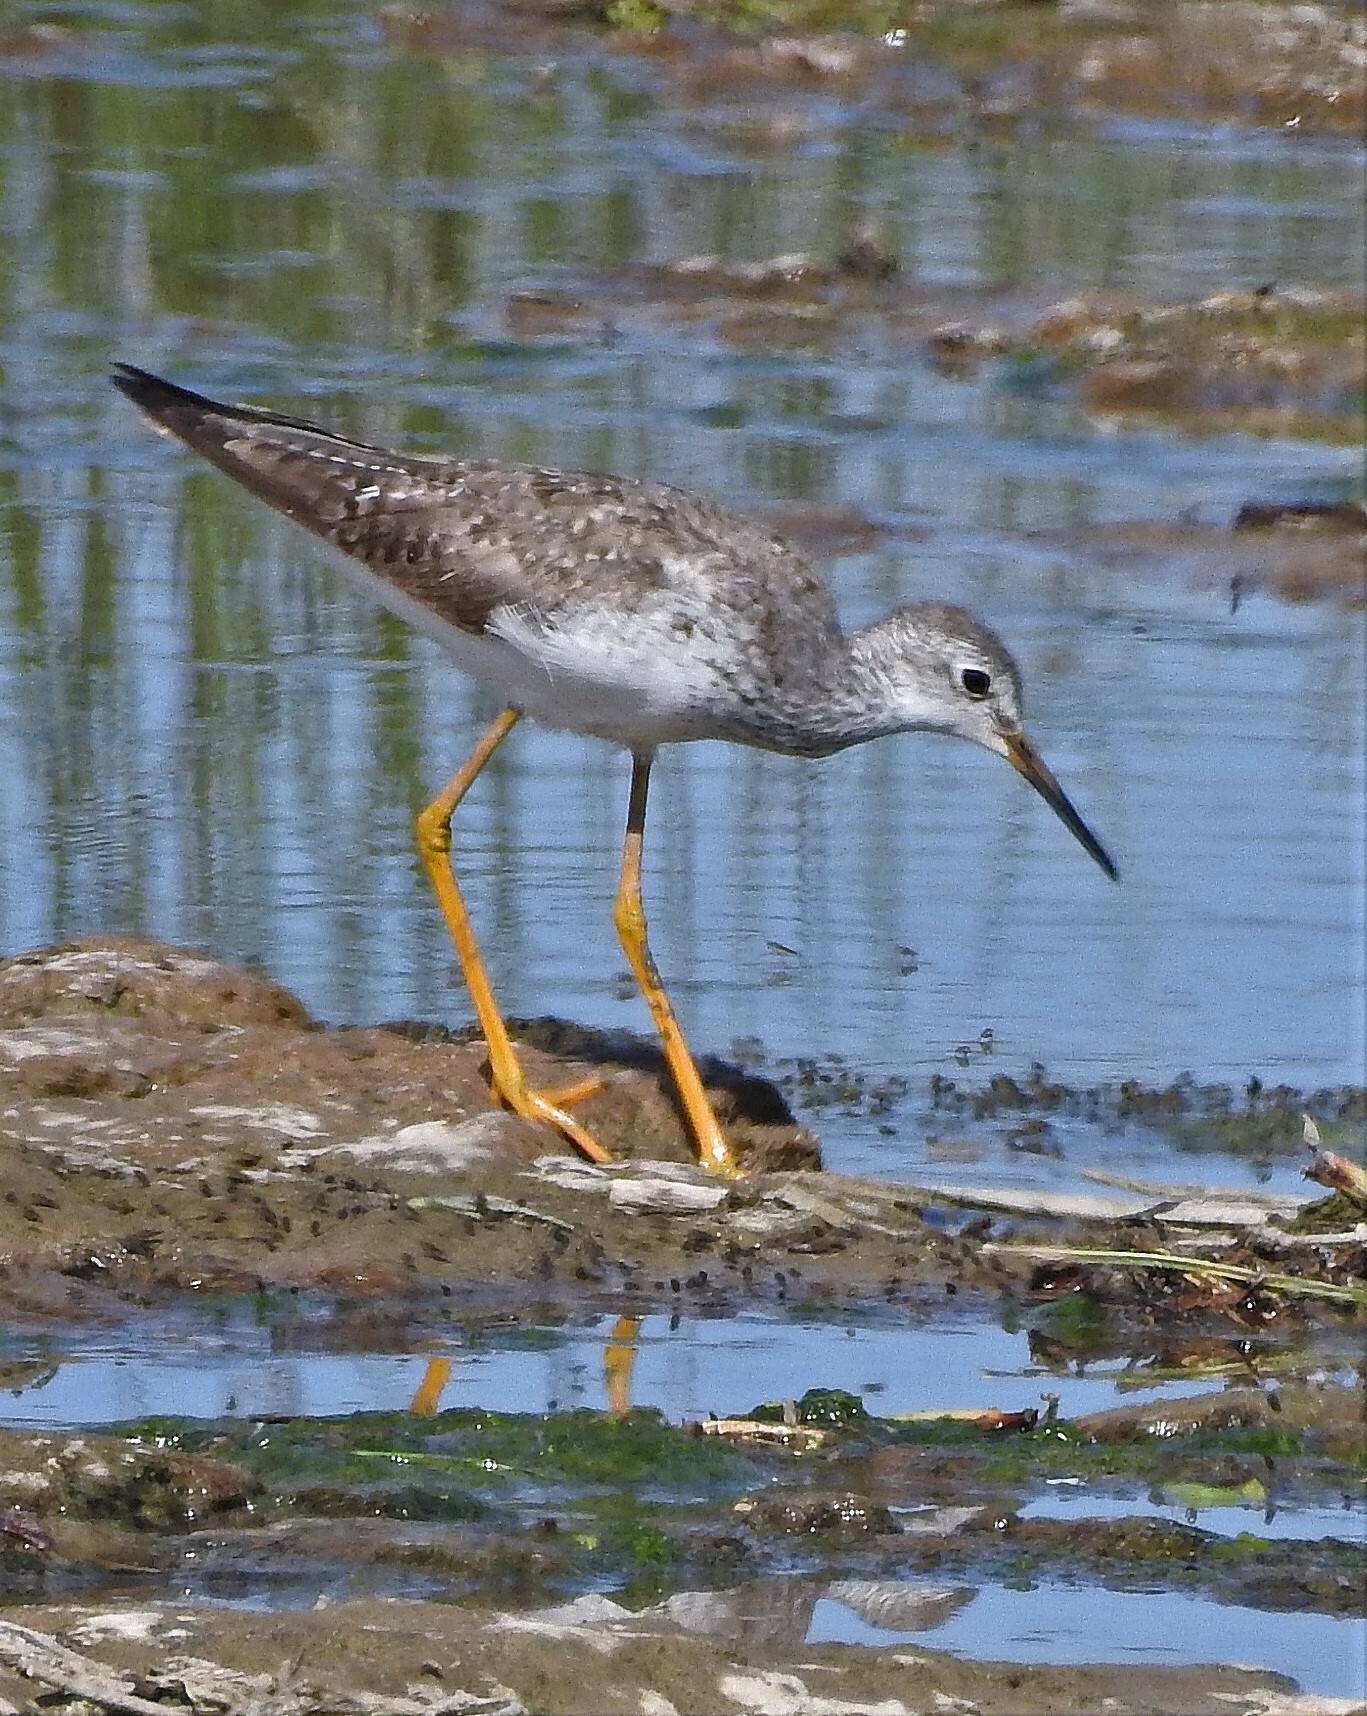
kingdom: Animalia
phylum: Chordata
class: Aves
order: Charadriiformes
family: Scolopacidae
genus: Tringa
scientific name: Tringa flavipes
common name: Lesser yellowlegs
